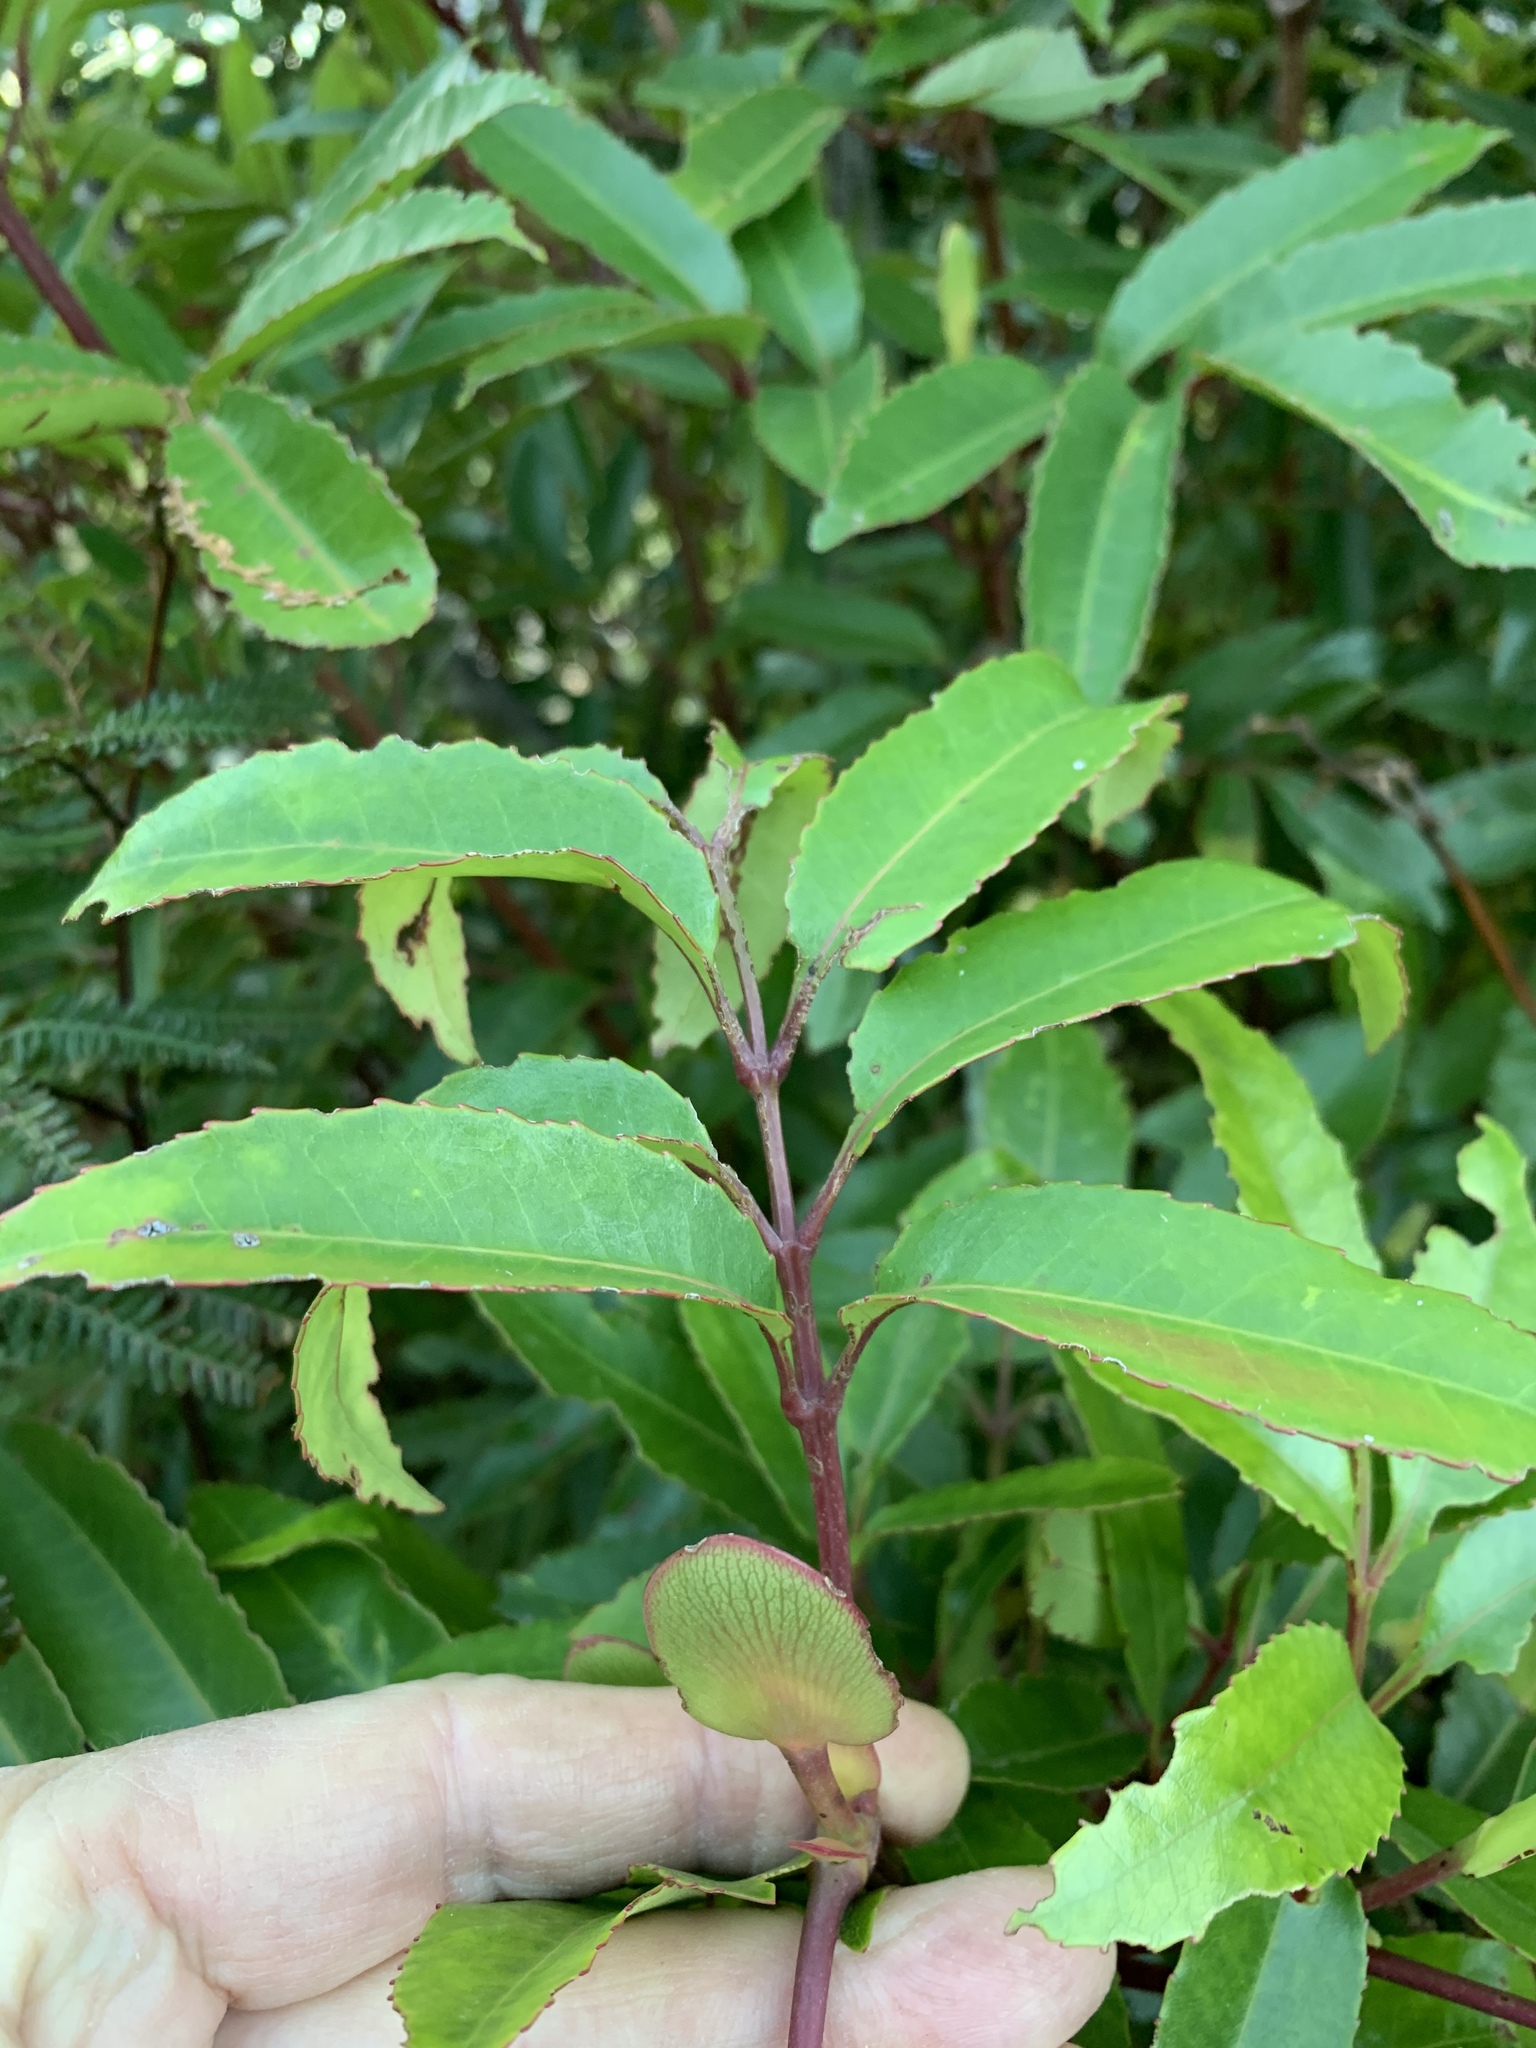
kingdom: Plantae
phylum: Tracheophyta
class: Magnoliopsida
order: Oxalidales
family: Cunoniaceae
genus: Cunonia
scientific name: Cunonia capensis
